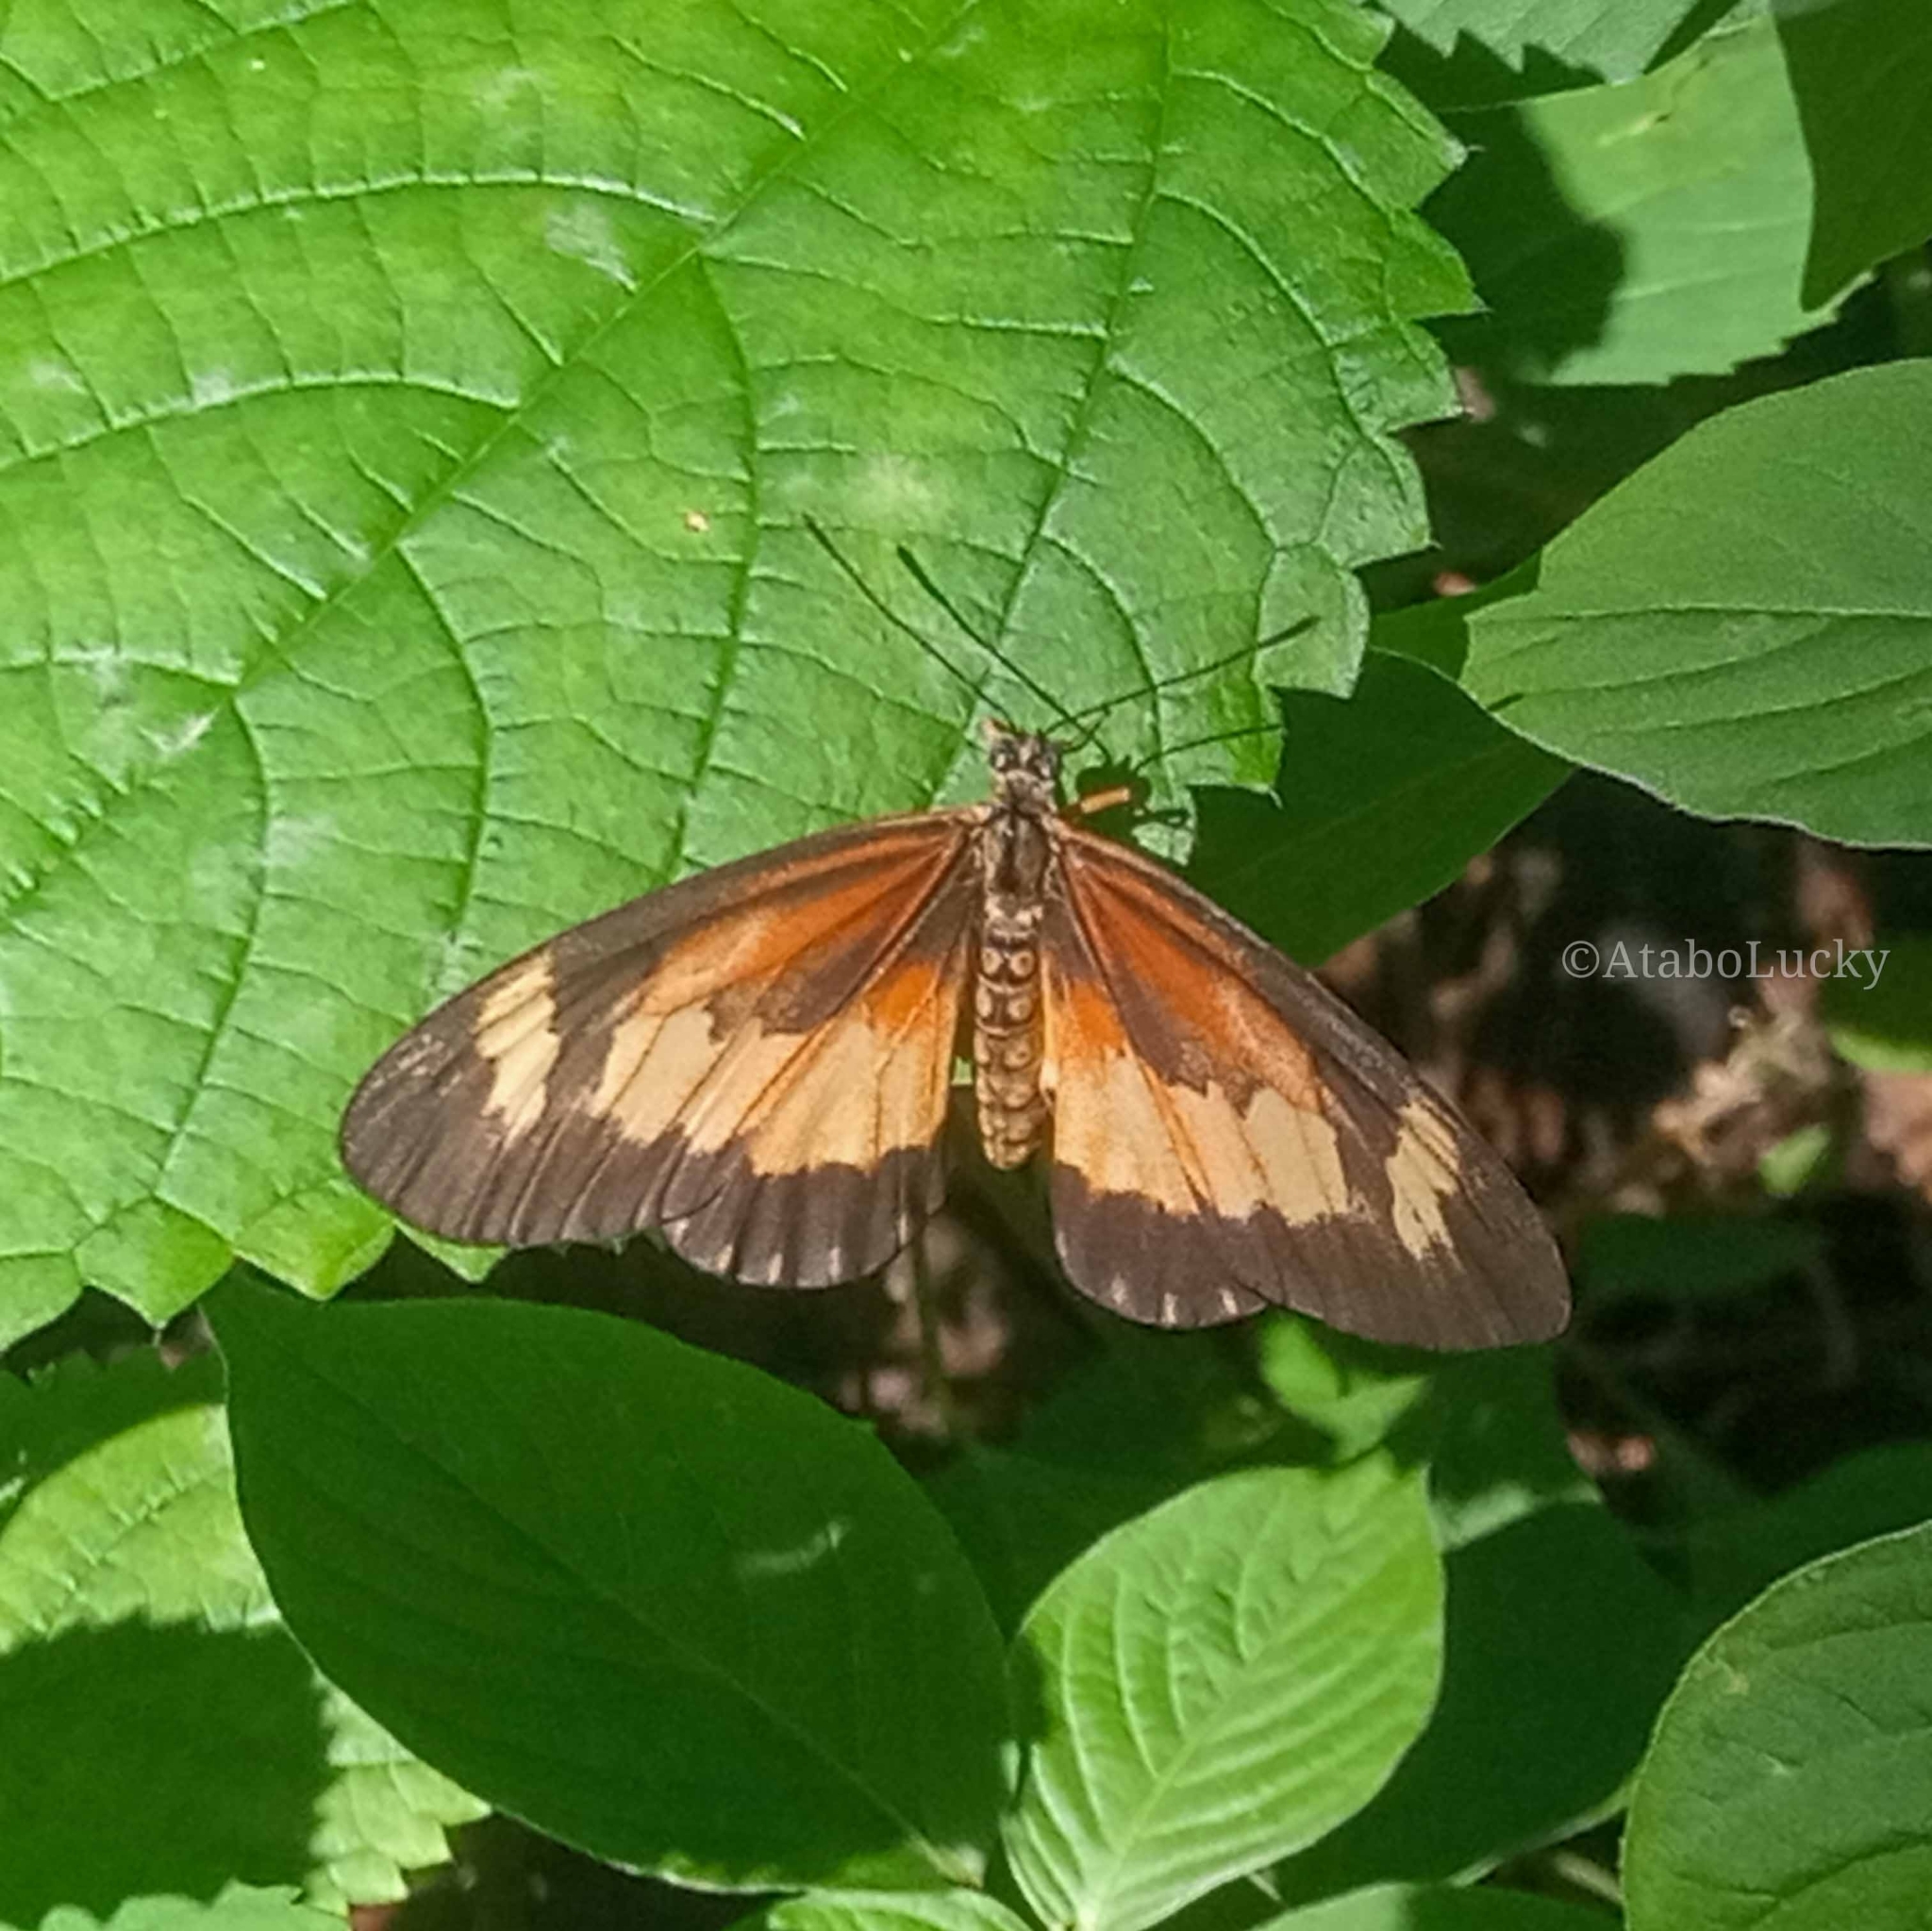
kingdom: Animalia
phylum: Arthropoda
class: Insecta
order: Lepidoptera
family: Nymphalidae
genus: Acraea
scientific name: Acraea Telchinia bonasia
